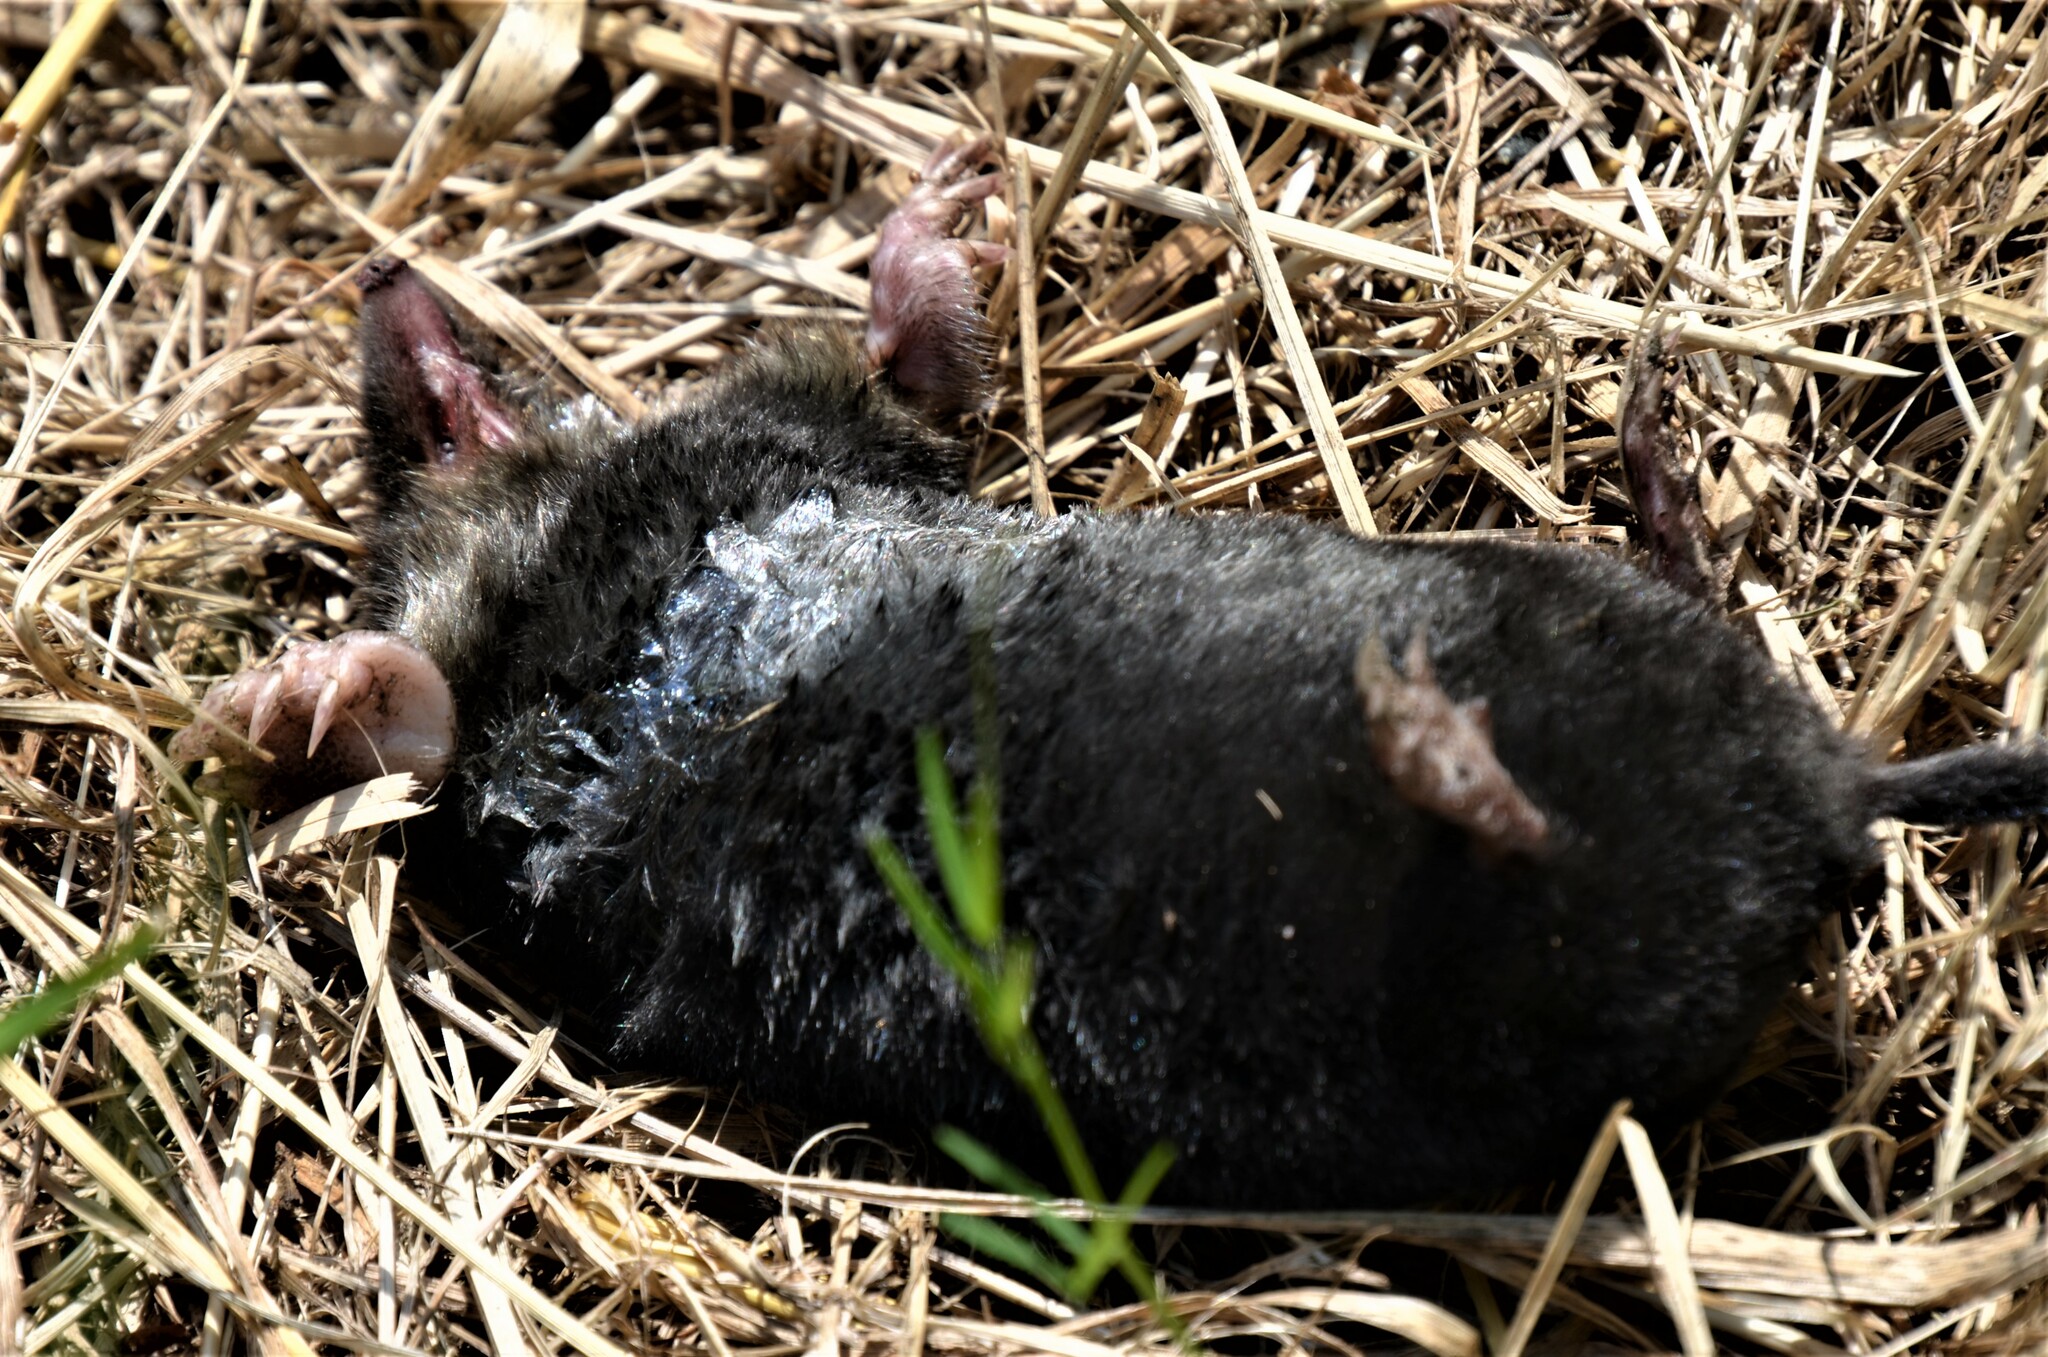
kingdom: Animalia
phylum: Chordata
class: Mammalia
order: Soricomorpha
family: Talpidae
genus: Talpa
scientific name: Talpa europaea
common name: European mole
